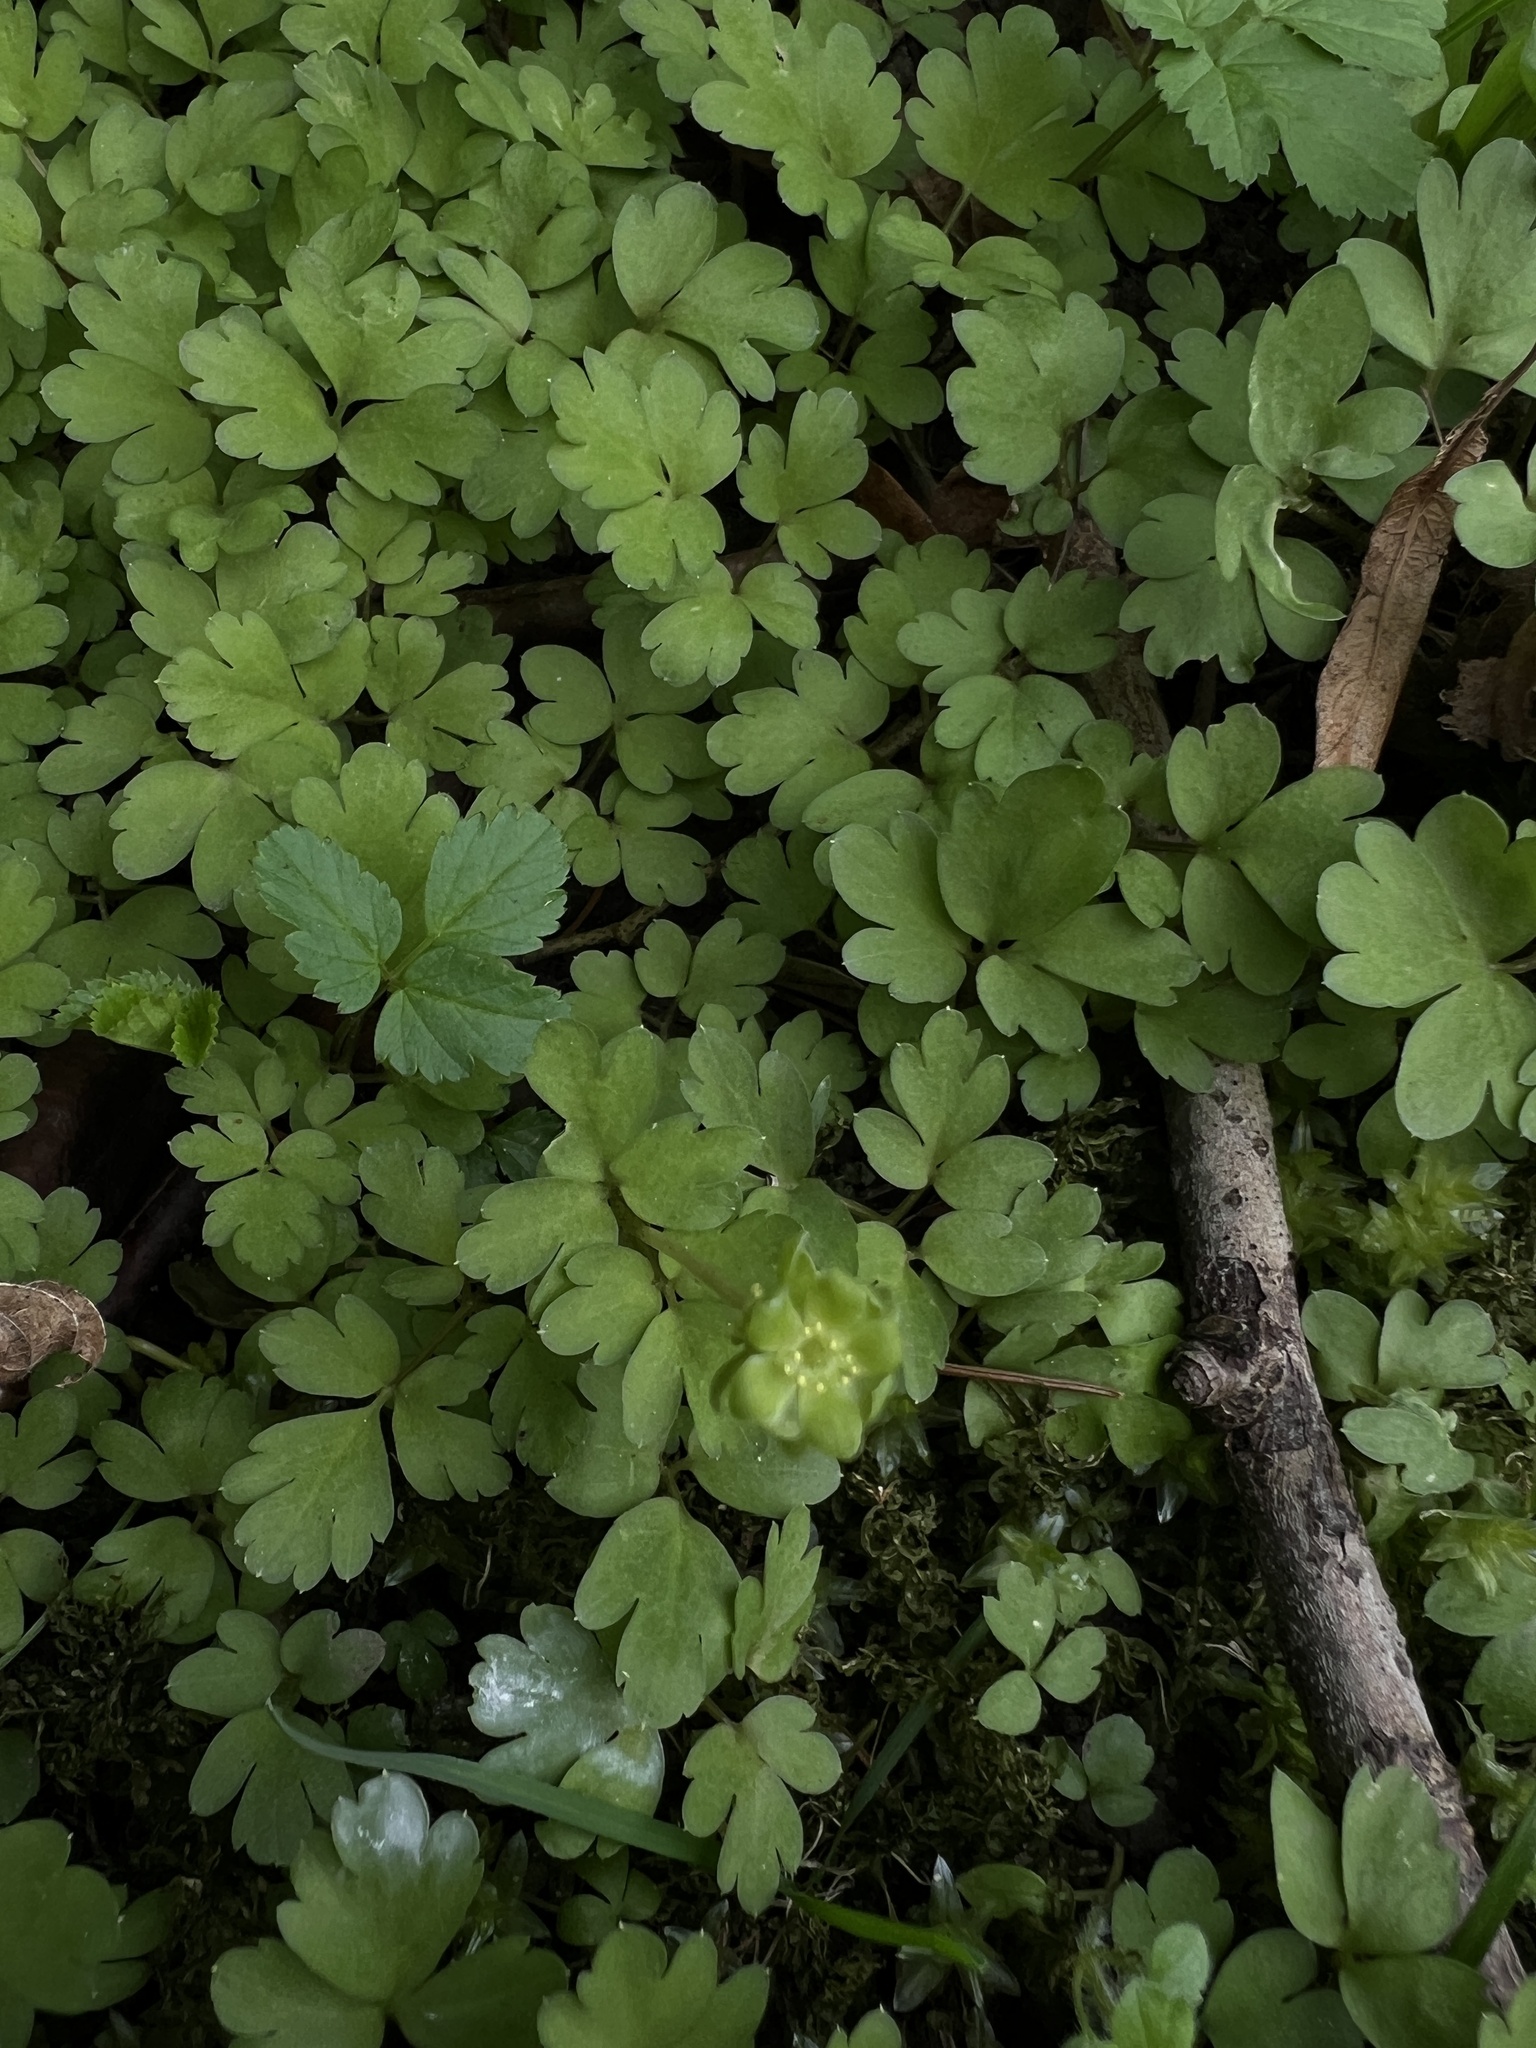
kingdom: Plantae
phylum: Tracheophyta
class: Magnoliopsida
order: Dipsacales
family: Viburnaceae
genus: Adoxa
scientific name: Adoxa moschatellina
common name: Moschatel
